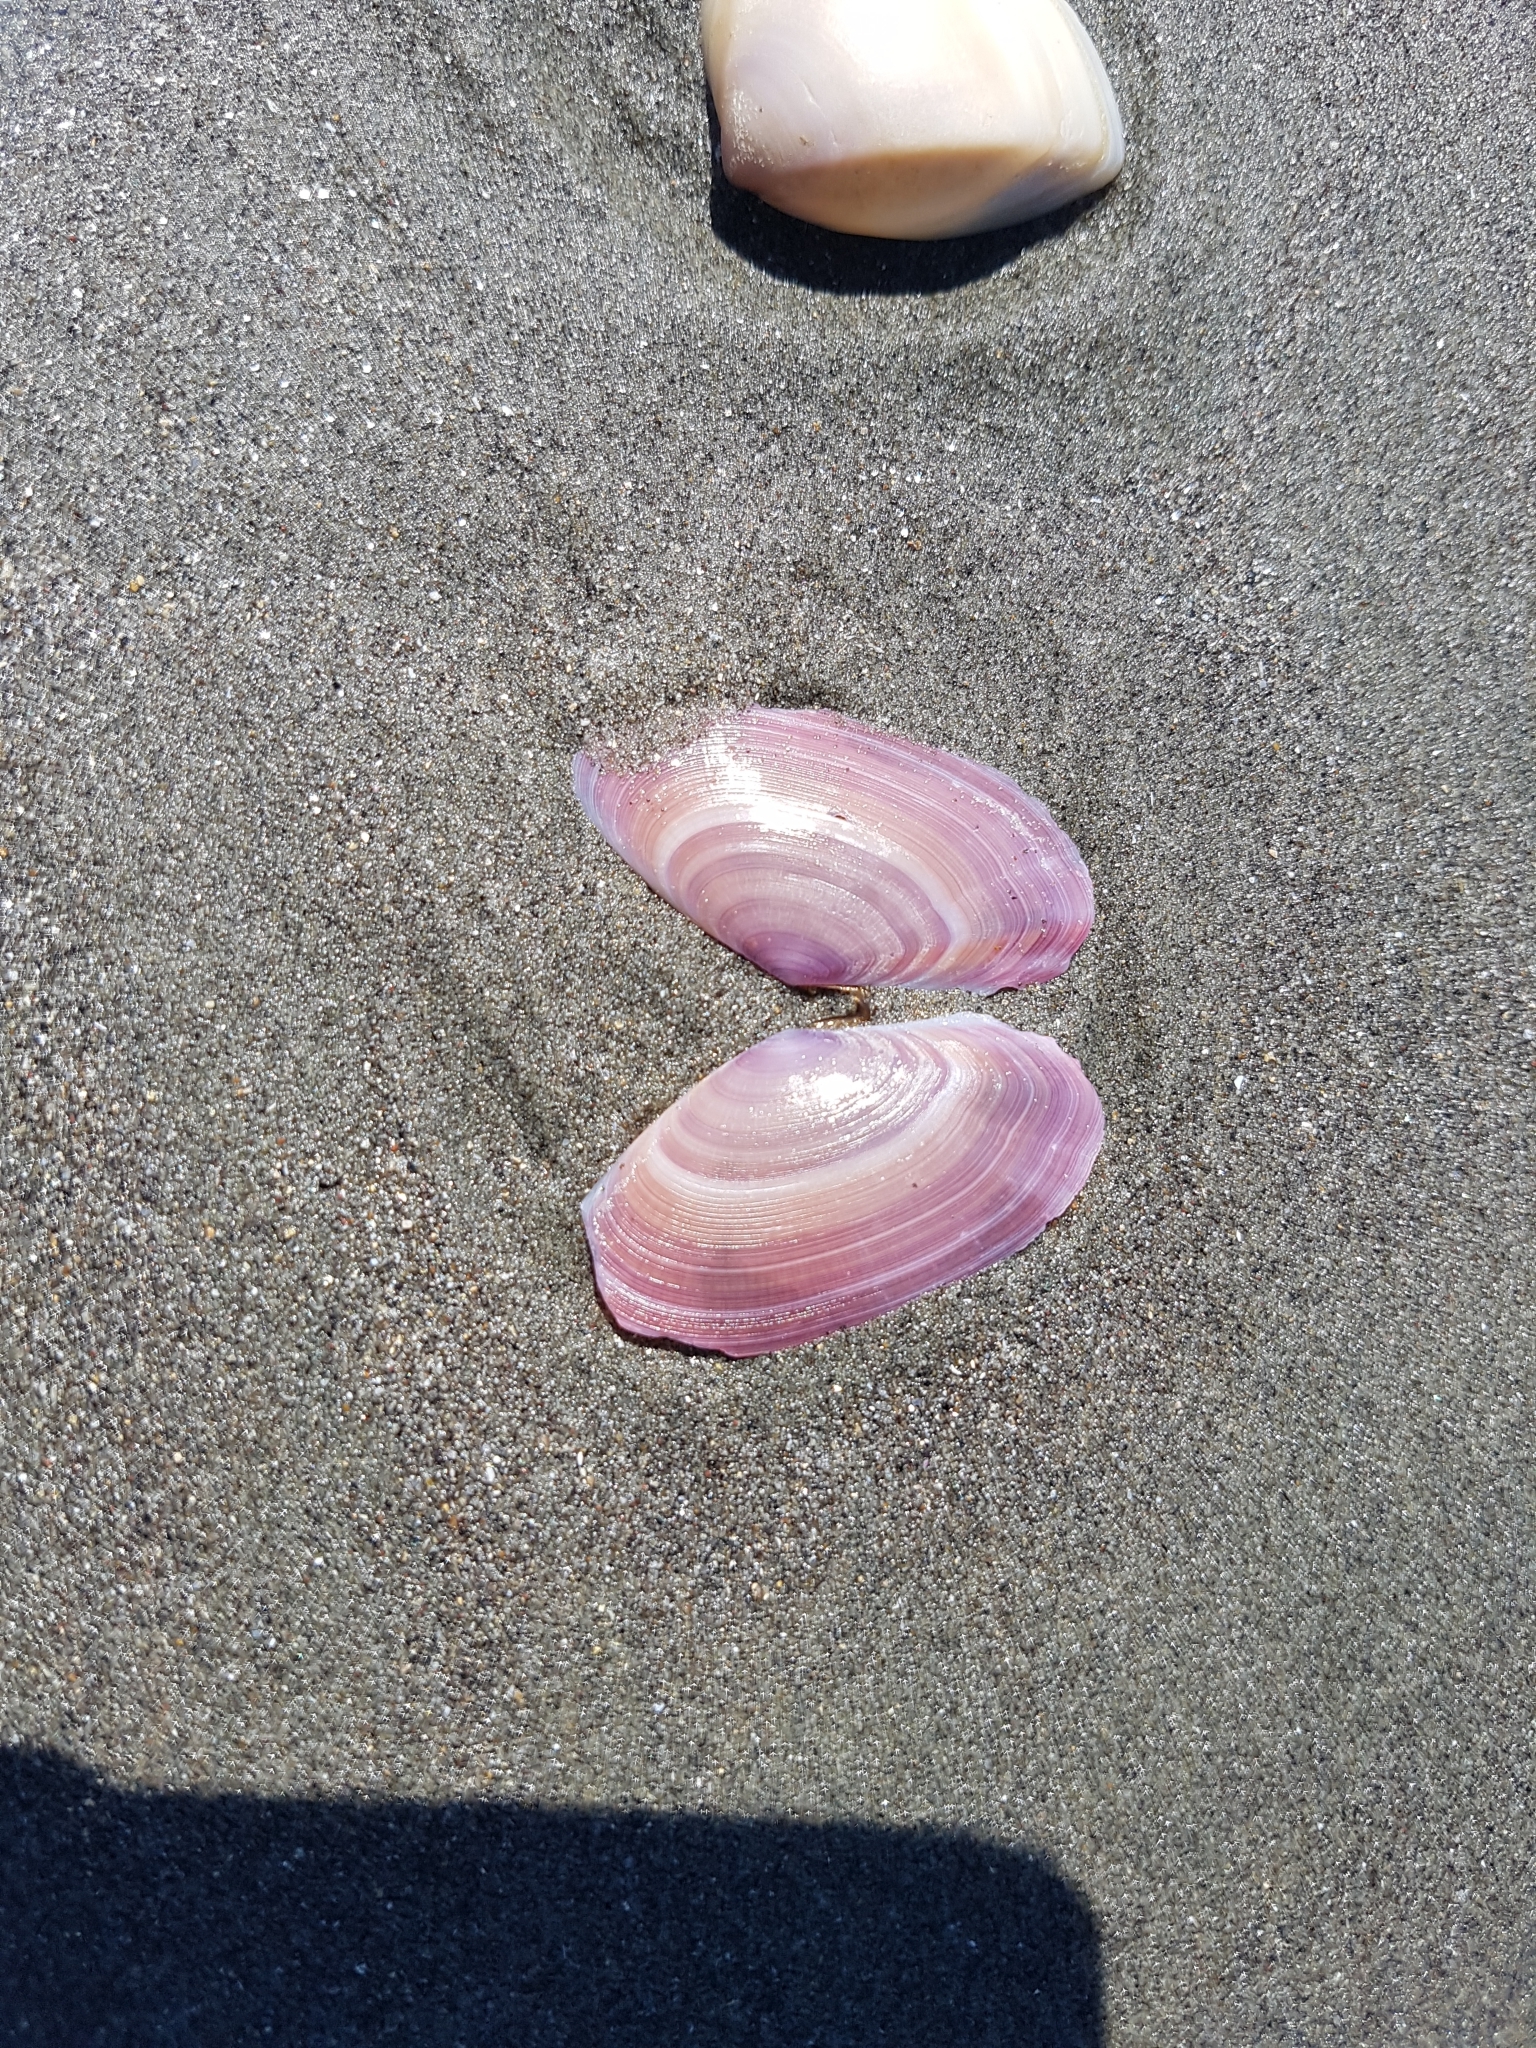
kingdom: Animalia
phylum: Mollusca
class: Bivalvia
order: Cardiida
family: Psammobiidae
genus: Gari
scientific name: Gari lineolata
